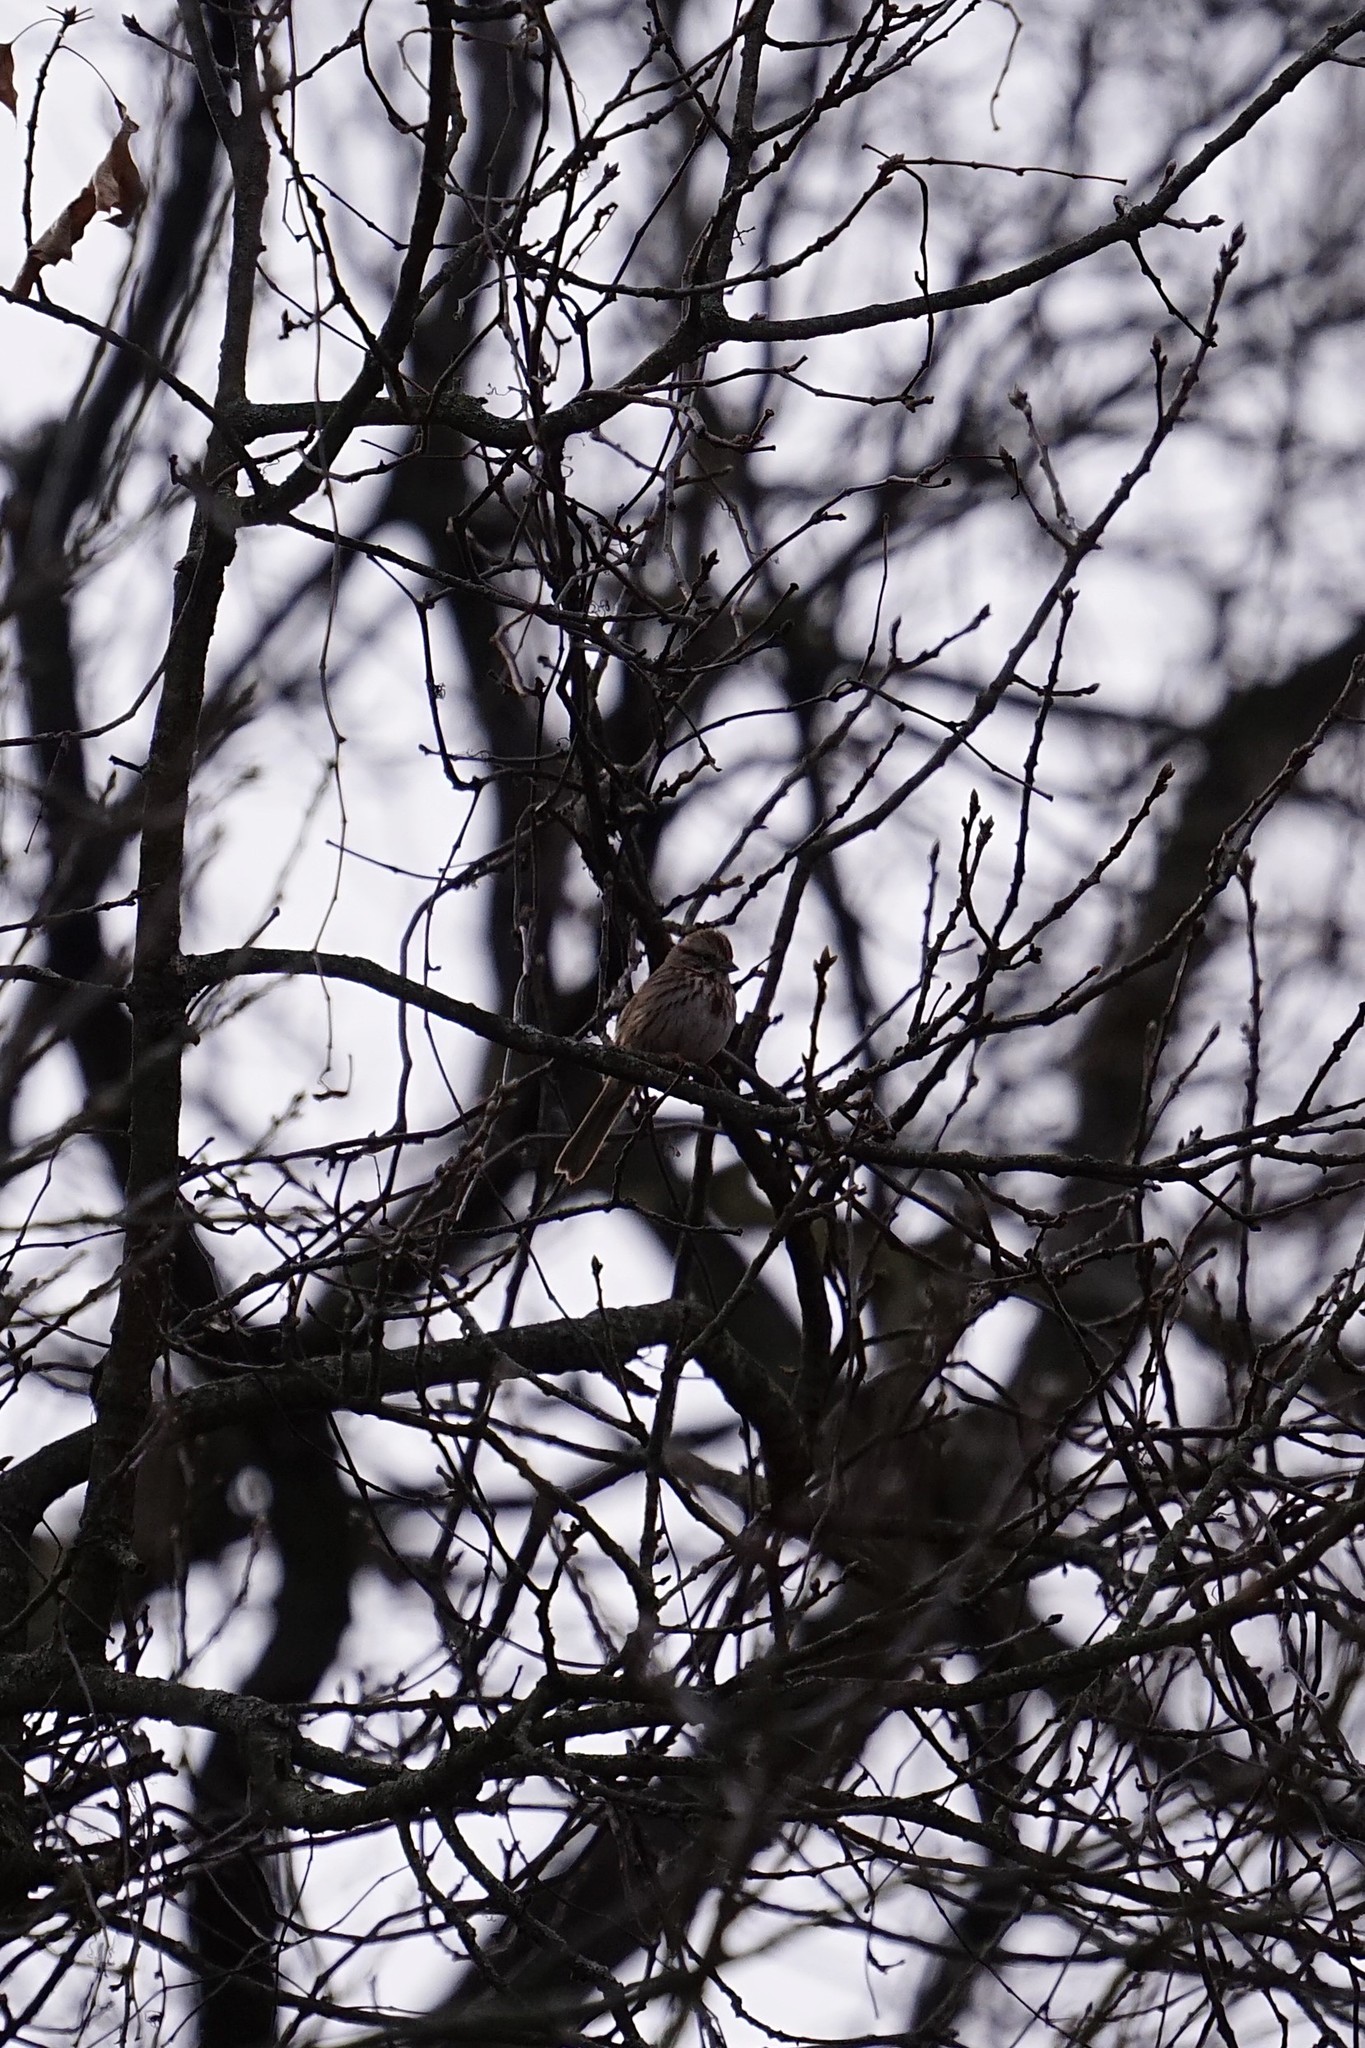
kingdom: Animalia
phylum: Chordata
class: Aves
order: Passeriformes
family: Passerellidae
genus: Melospiza
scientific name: Melospiza melodia
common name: Song sparrow
